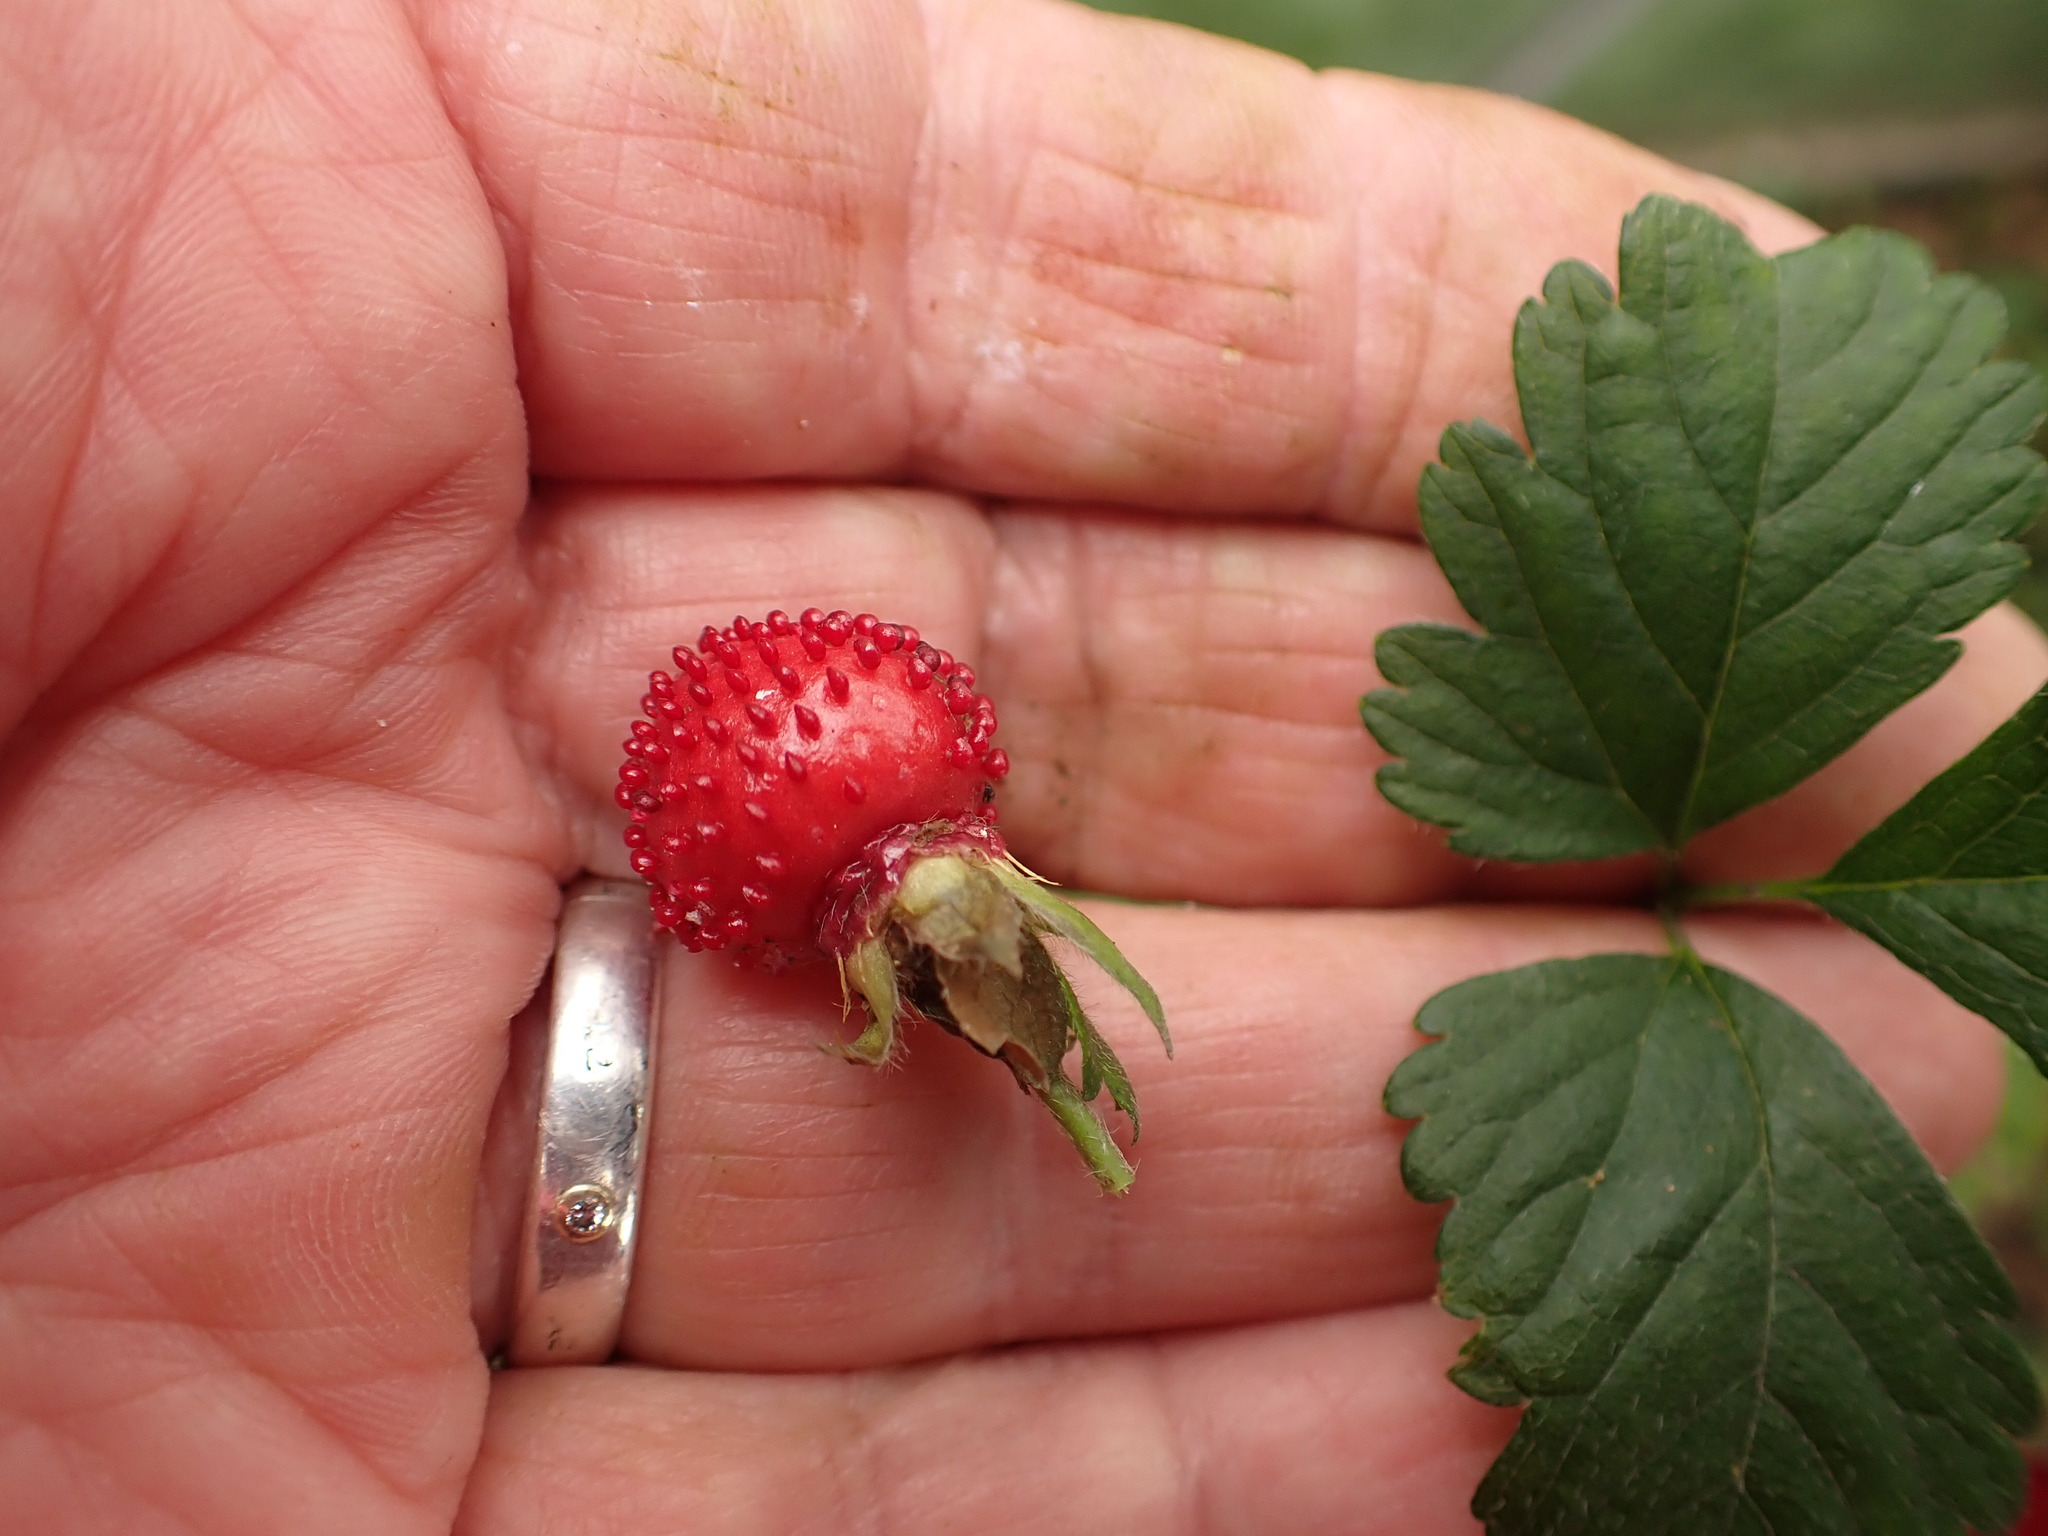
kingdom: Plantae
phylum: Tracheophyta
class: Magnoliopsida
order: Rosales
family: Rosaceae
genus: Potentilla
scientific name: Potentilla indica
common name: Yellow-flowered strawberry
